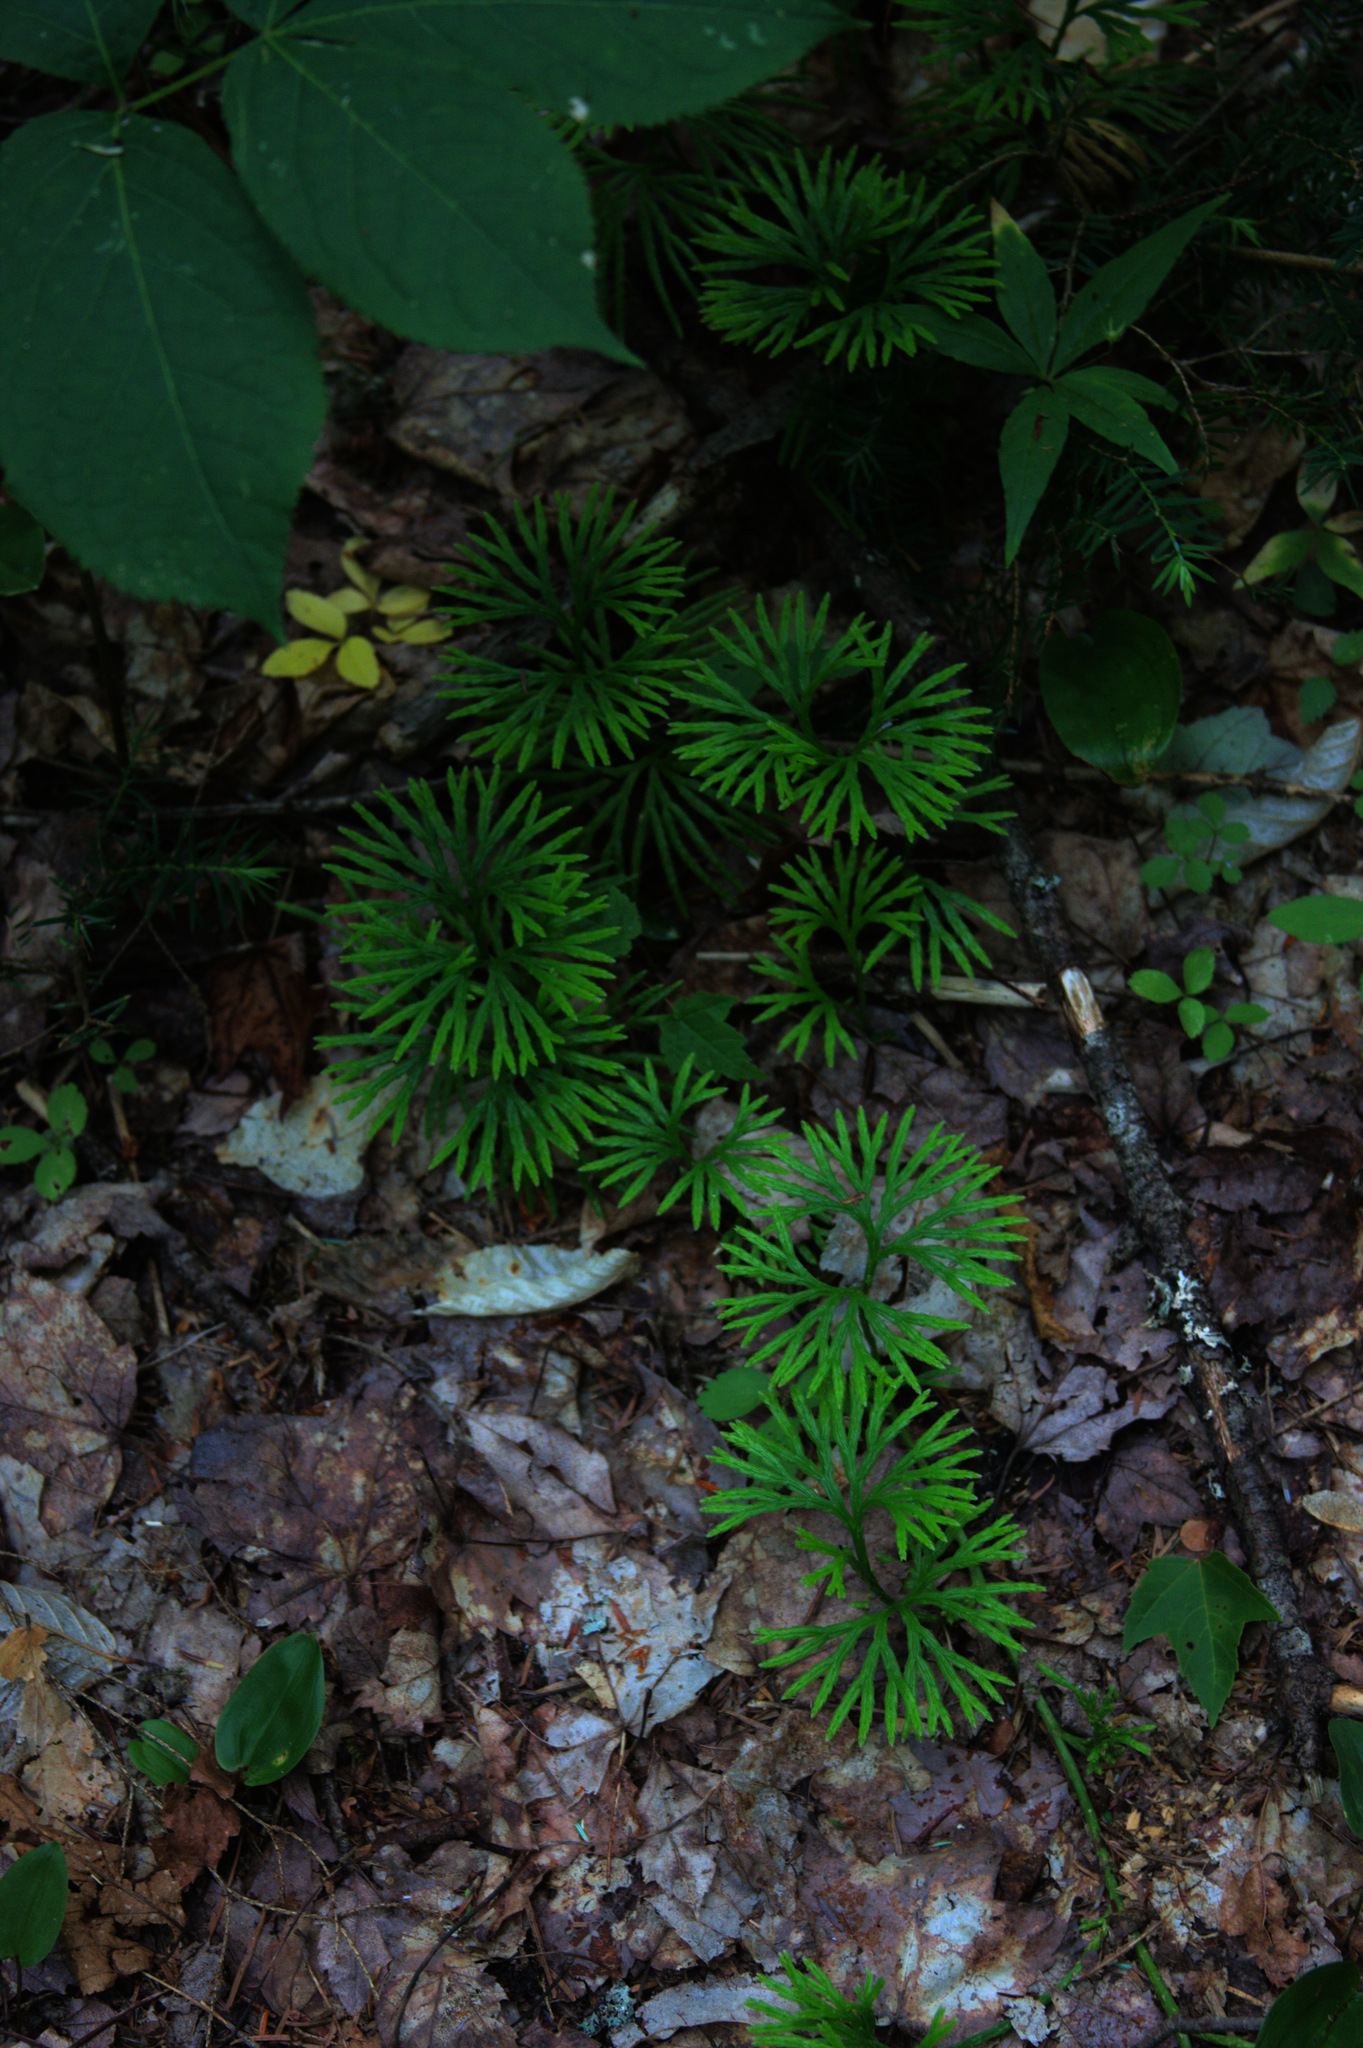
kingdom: Plantae
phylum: Tracheophyta
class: Lycopodiopsida
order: Lycopodiales
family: Lycopodiaceae
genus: Diphasiastrum
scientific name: Diphasiastrum digitatum
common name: Southern running-pine
